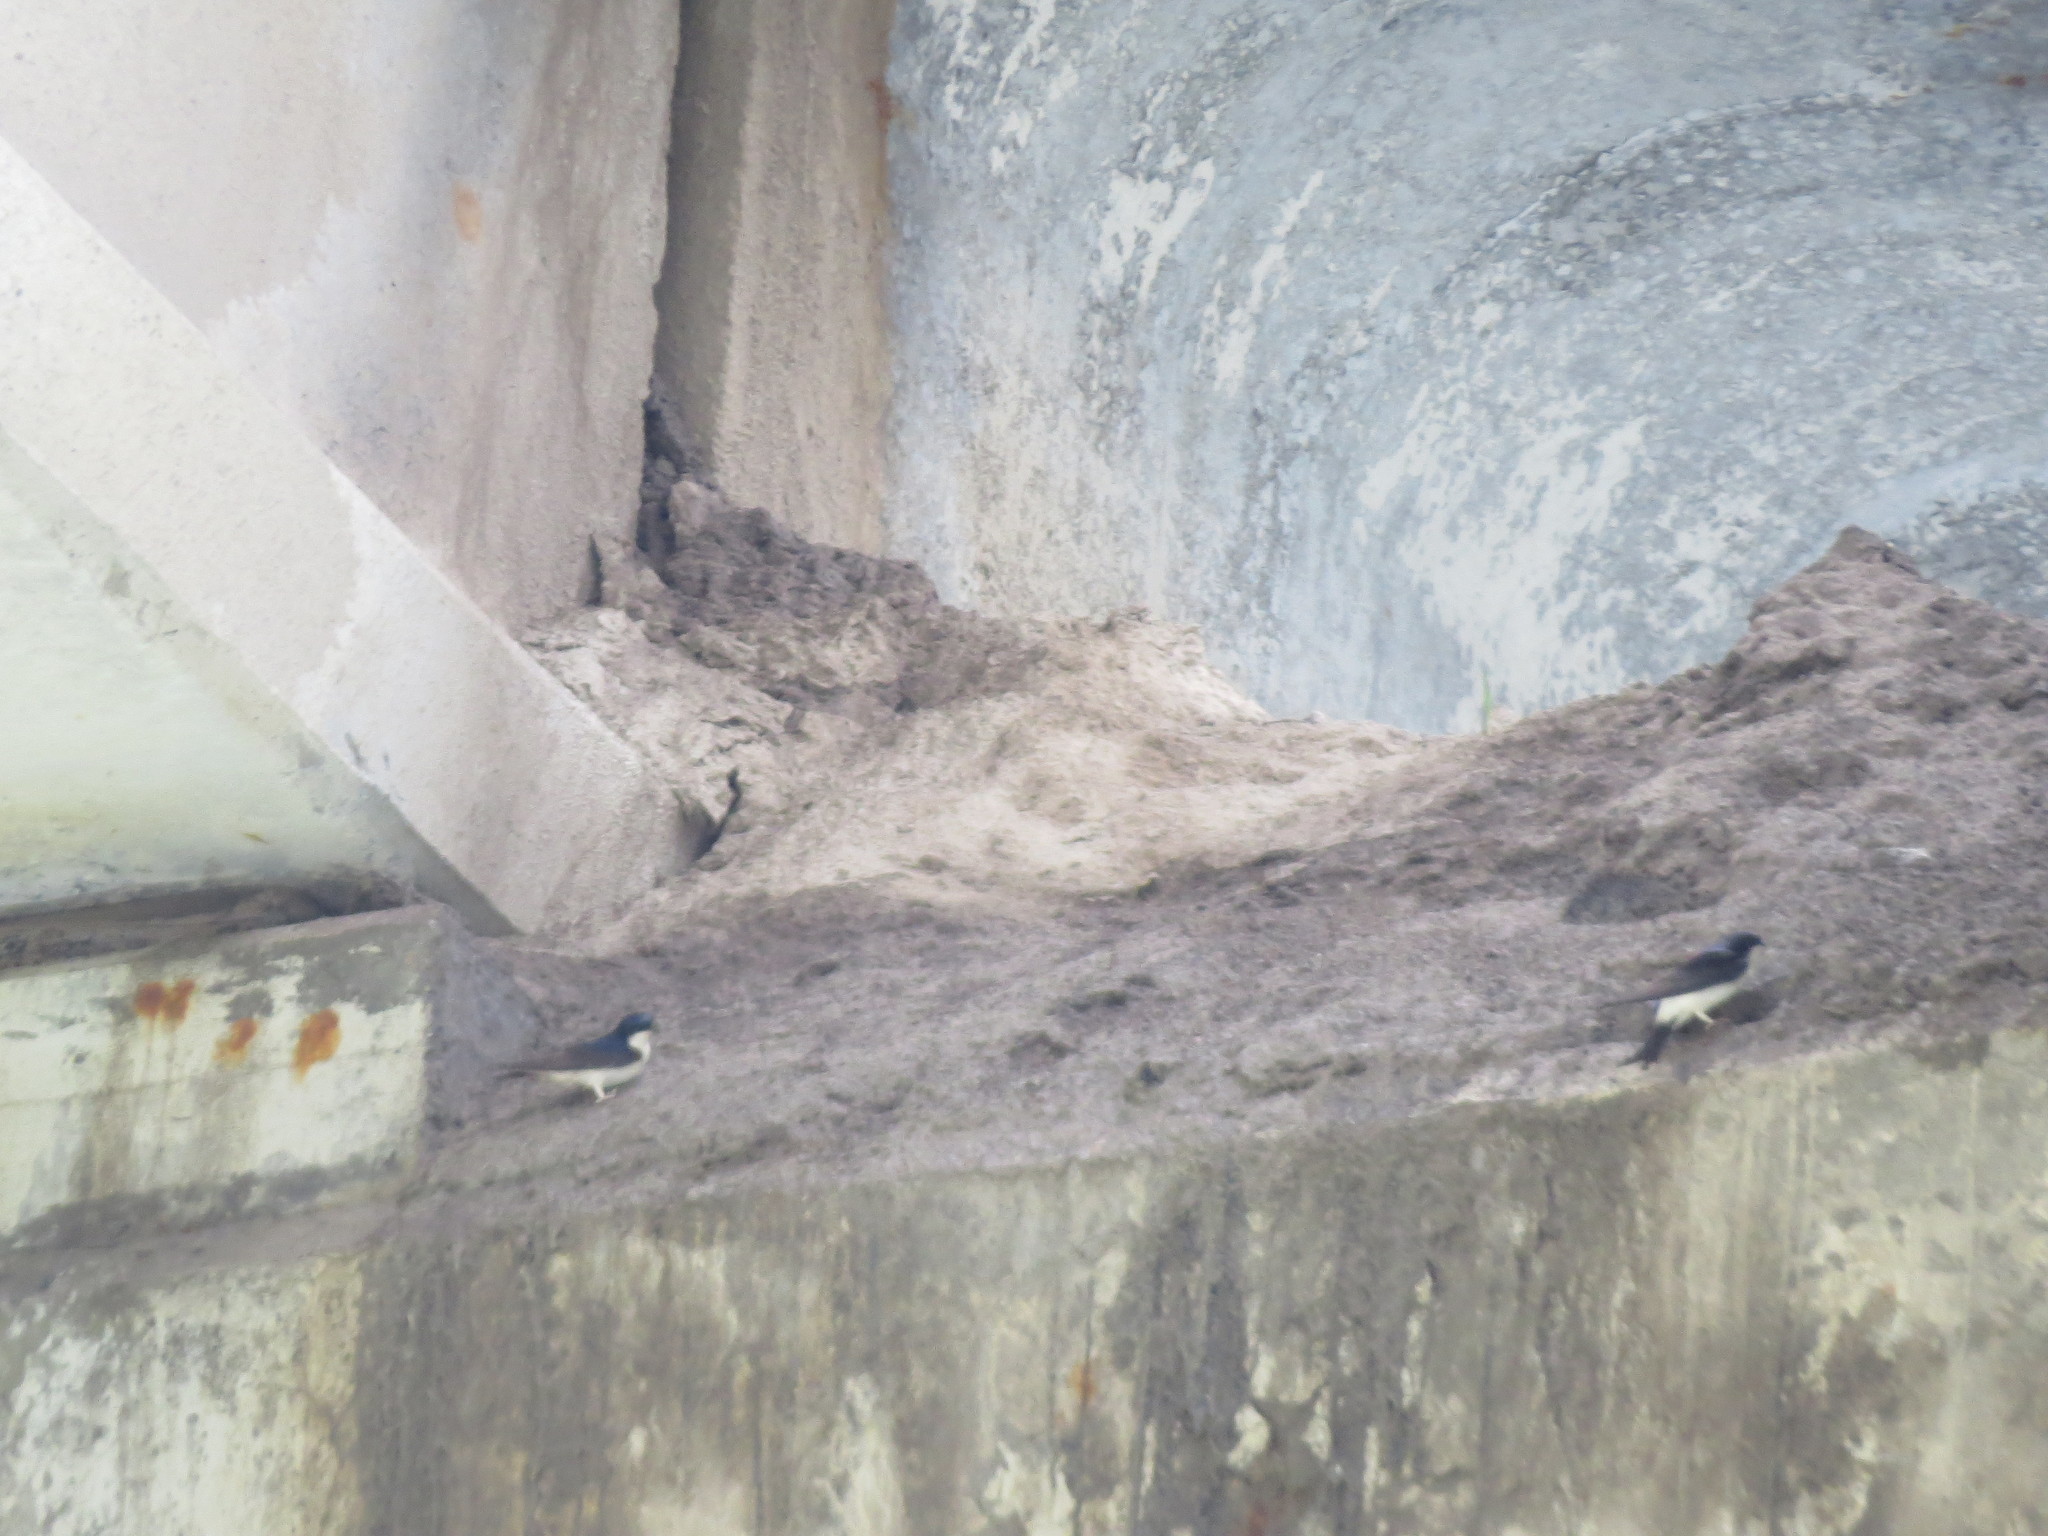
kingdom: Animalia
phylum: Chordata
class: Aves
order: Passeriformes
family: Hirundinidae
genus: Delichon
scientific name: Delichon urbicum
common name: Common house martin
